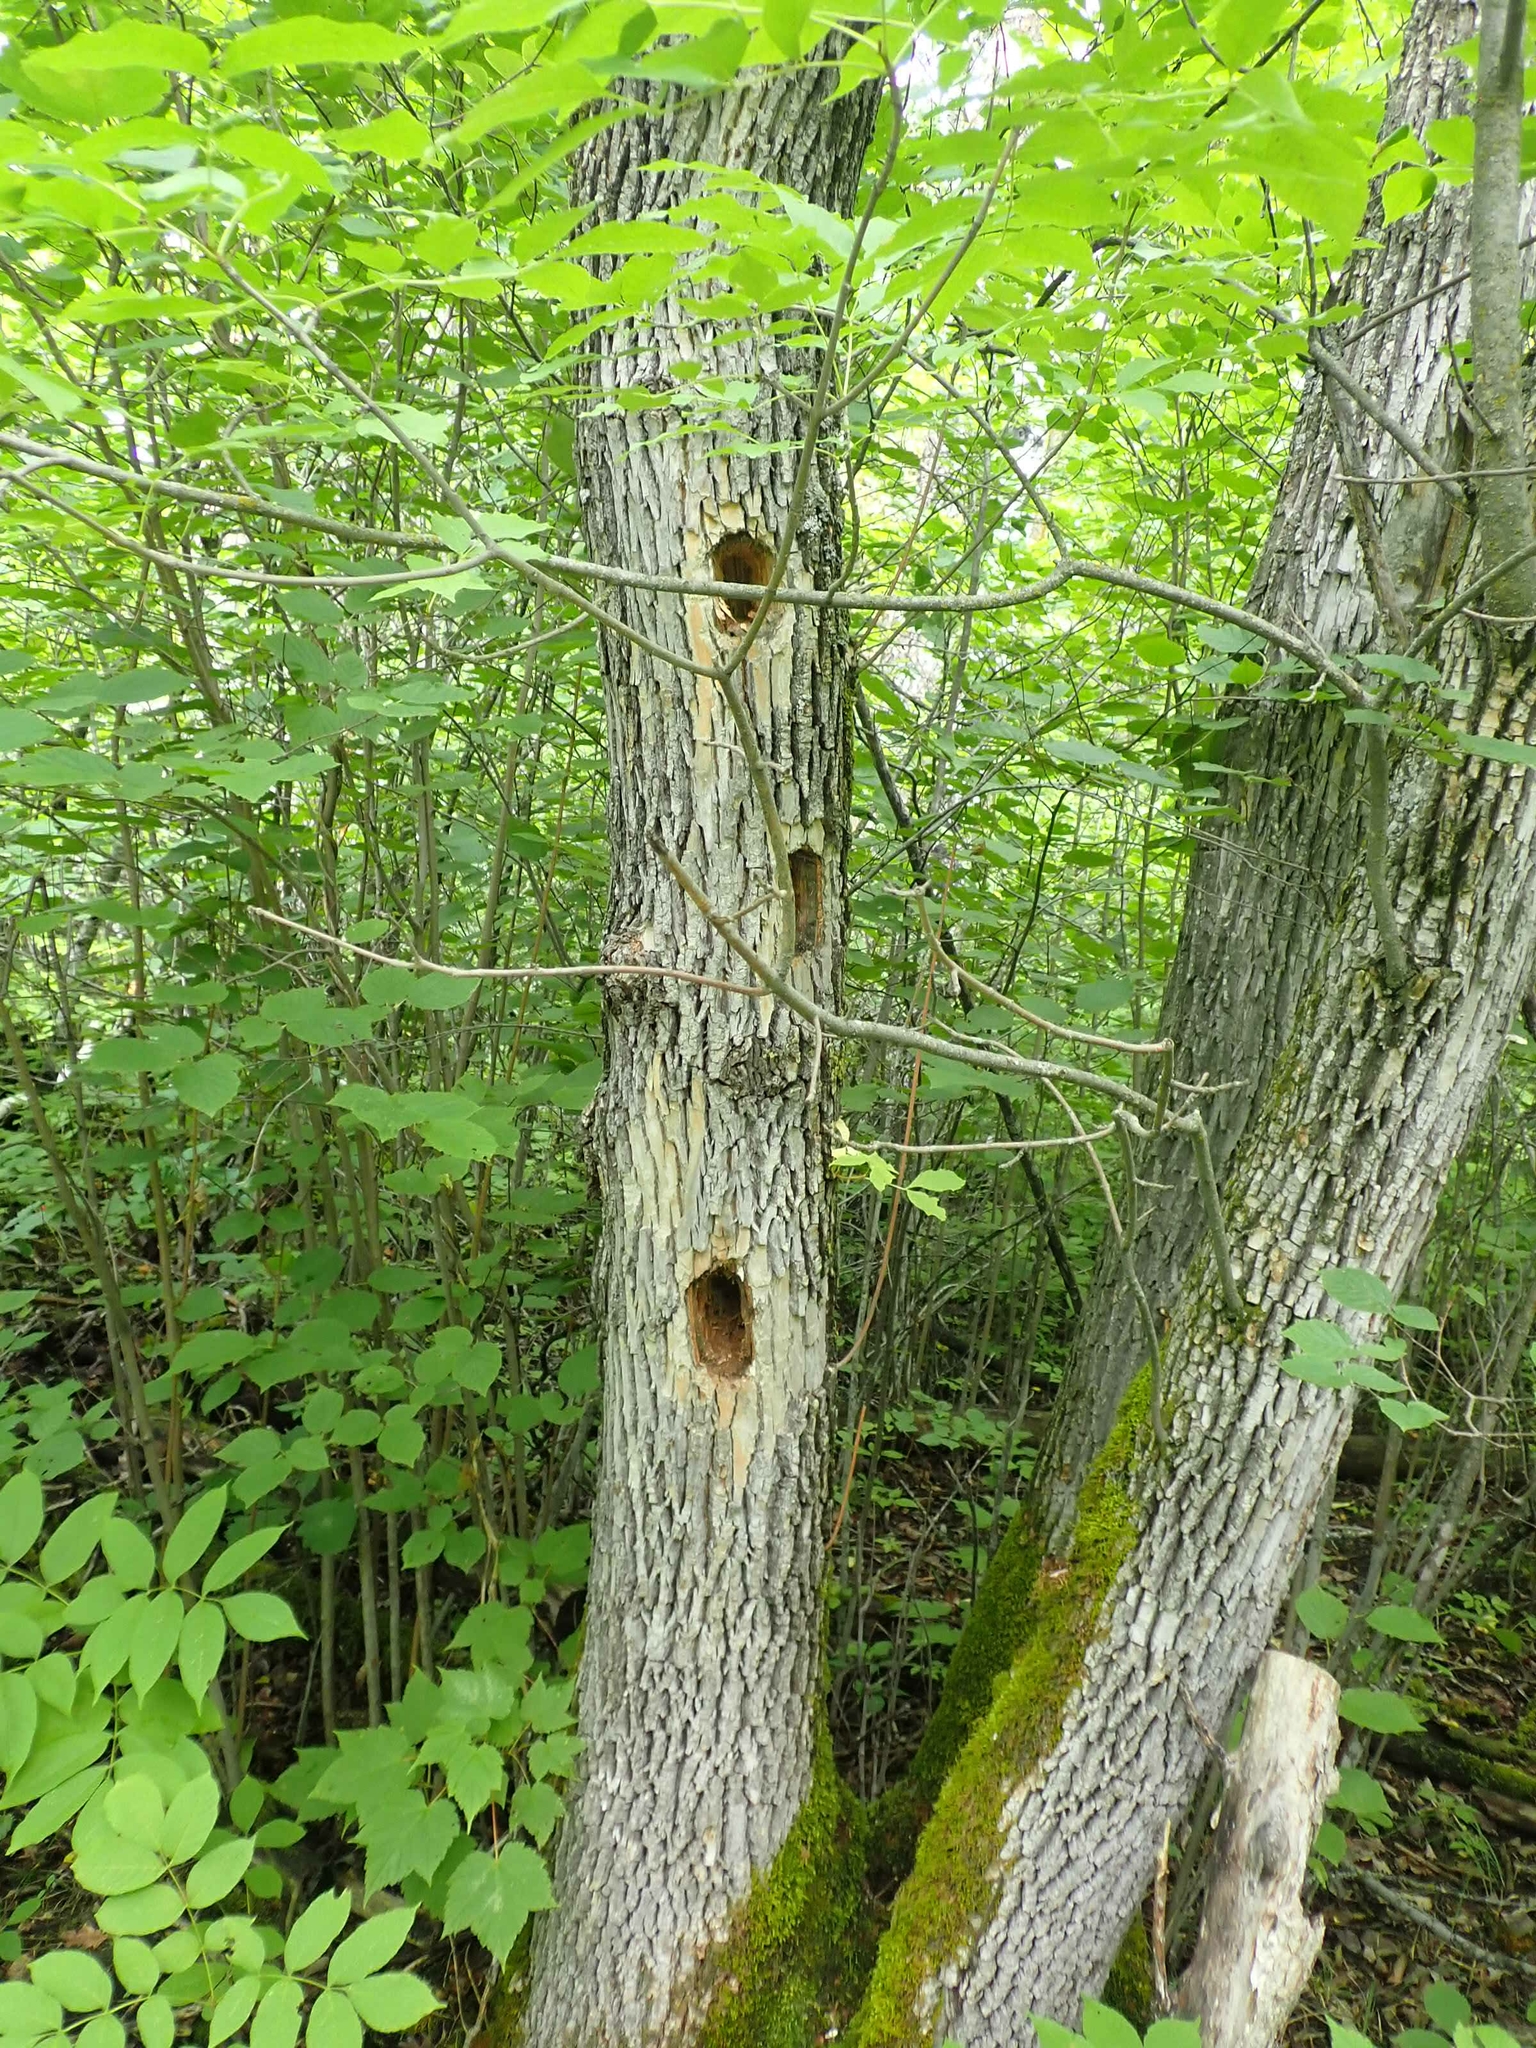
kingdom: Animalia
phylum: Chordata
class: Aves
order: Piciformes
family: Picidae
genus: Dryocopus
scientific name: Dryocopus pileatus
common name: Pileated woodpecker
